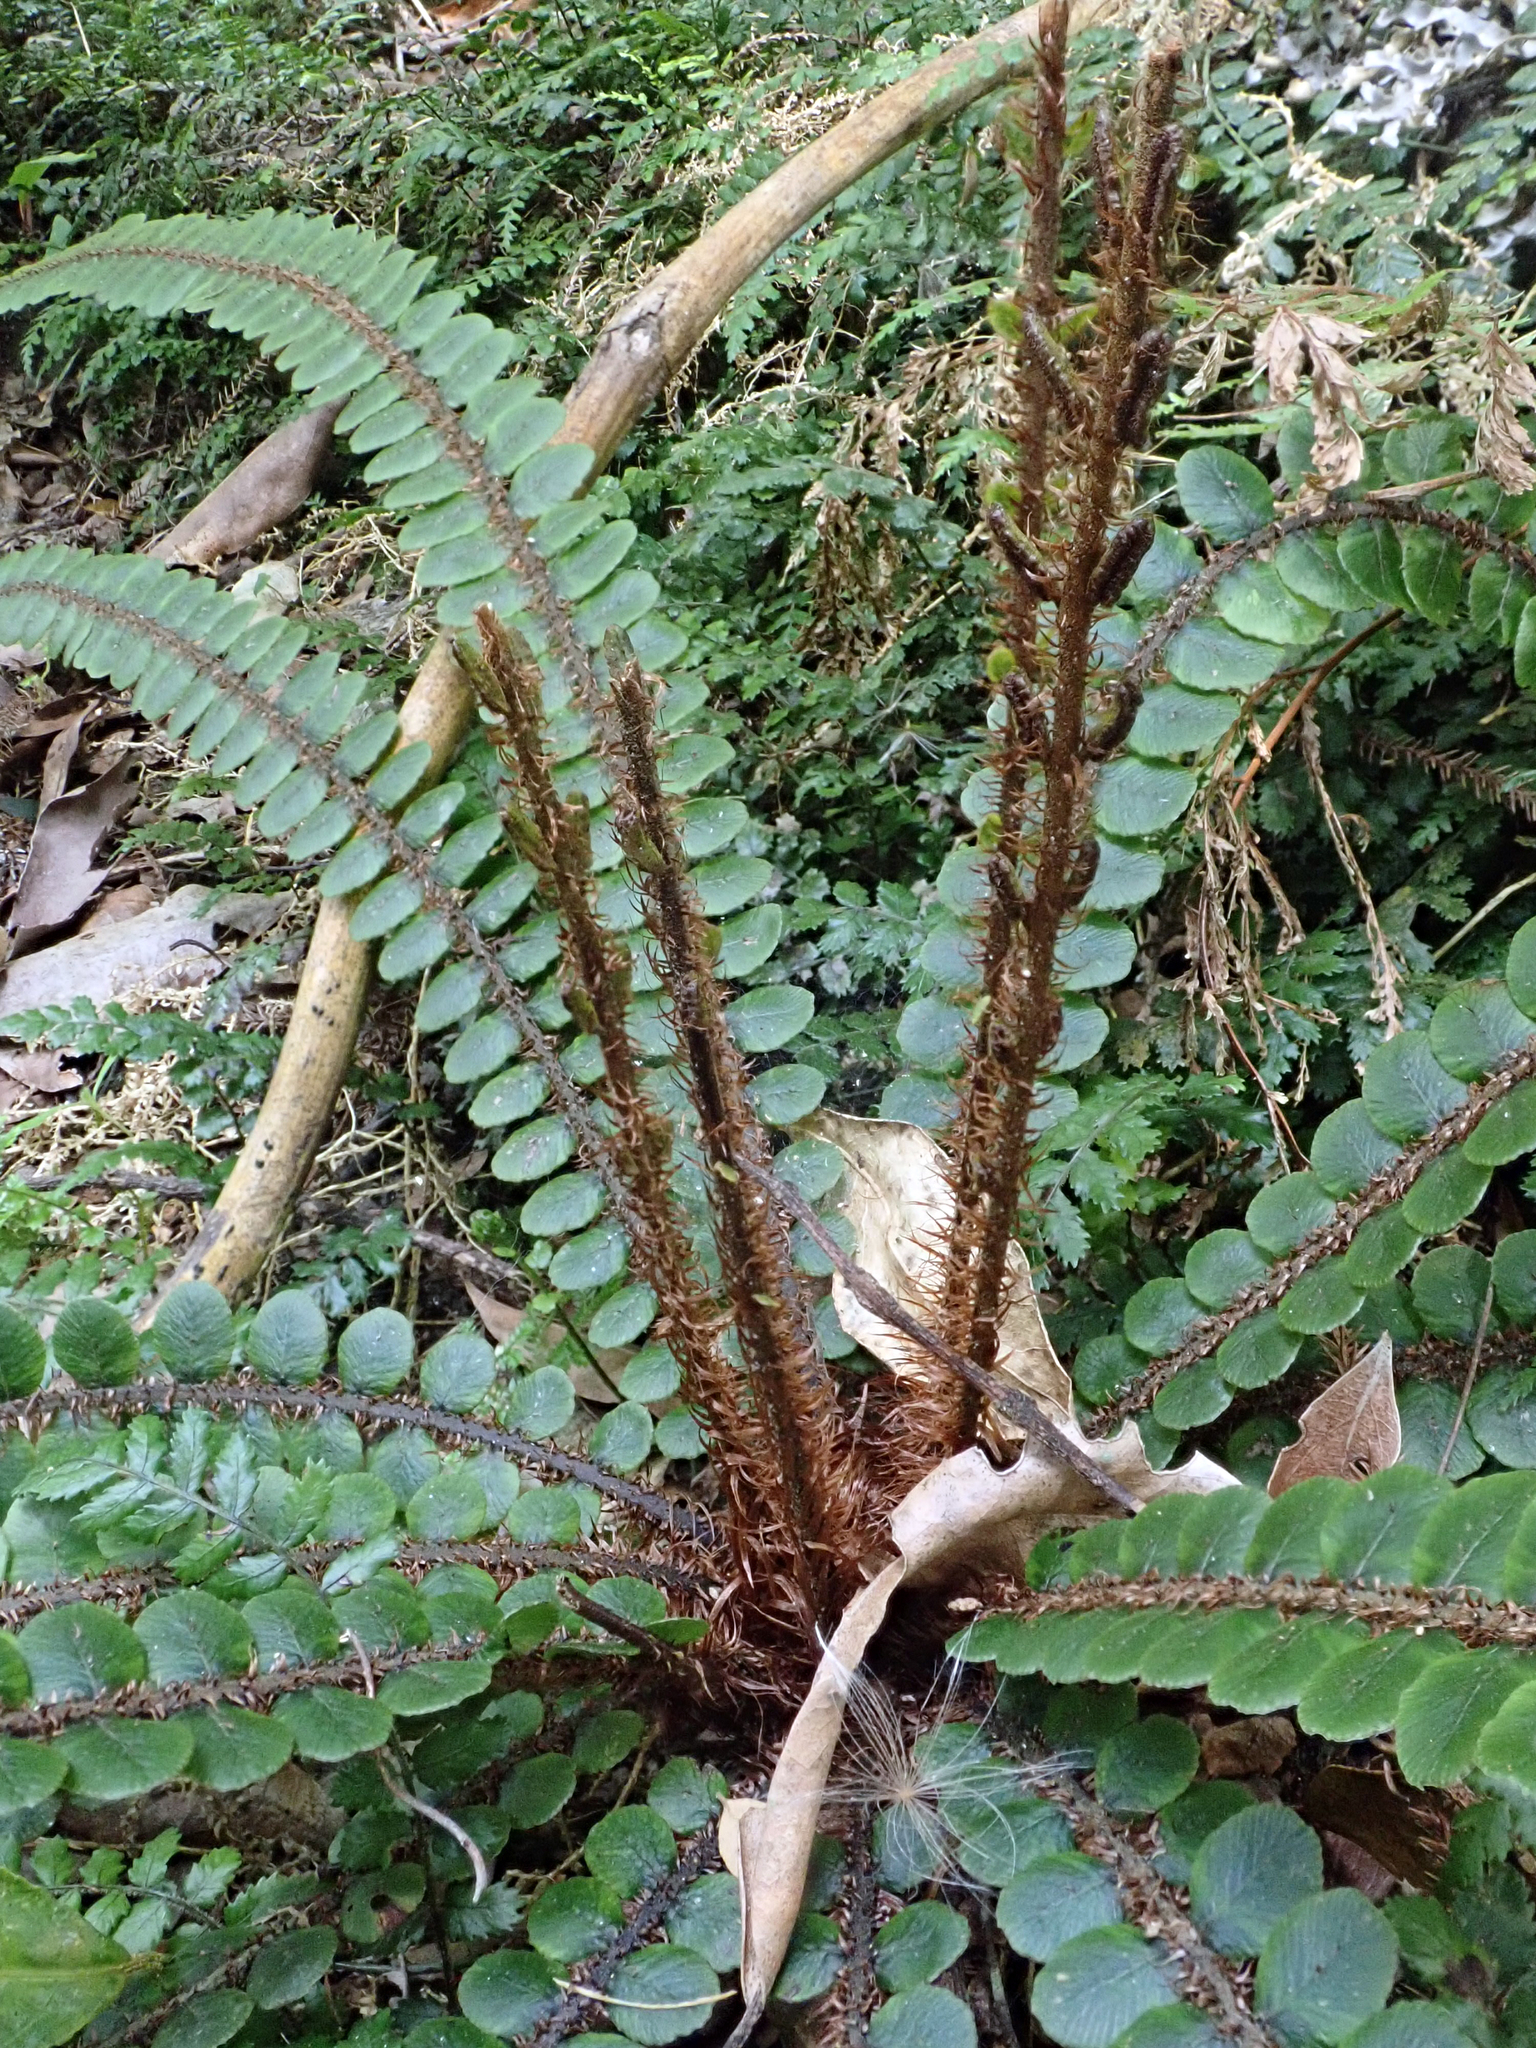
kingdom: Plantae
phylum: Tracheophyta
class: Polypodiopsida
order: Polypodiales
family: Blechnaceae
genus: Cranfillia
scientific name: Cranfillia fluviatilis
